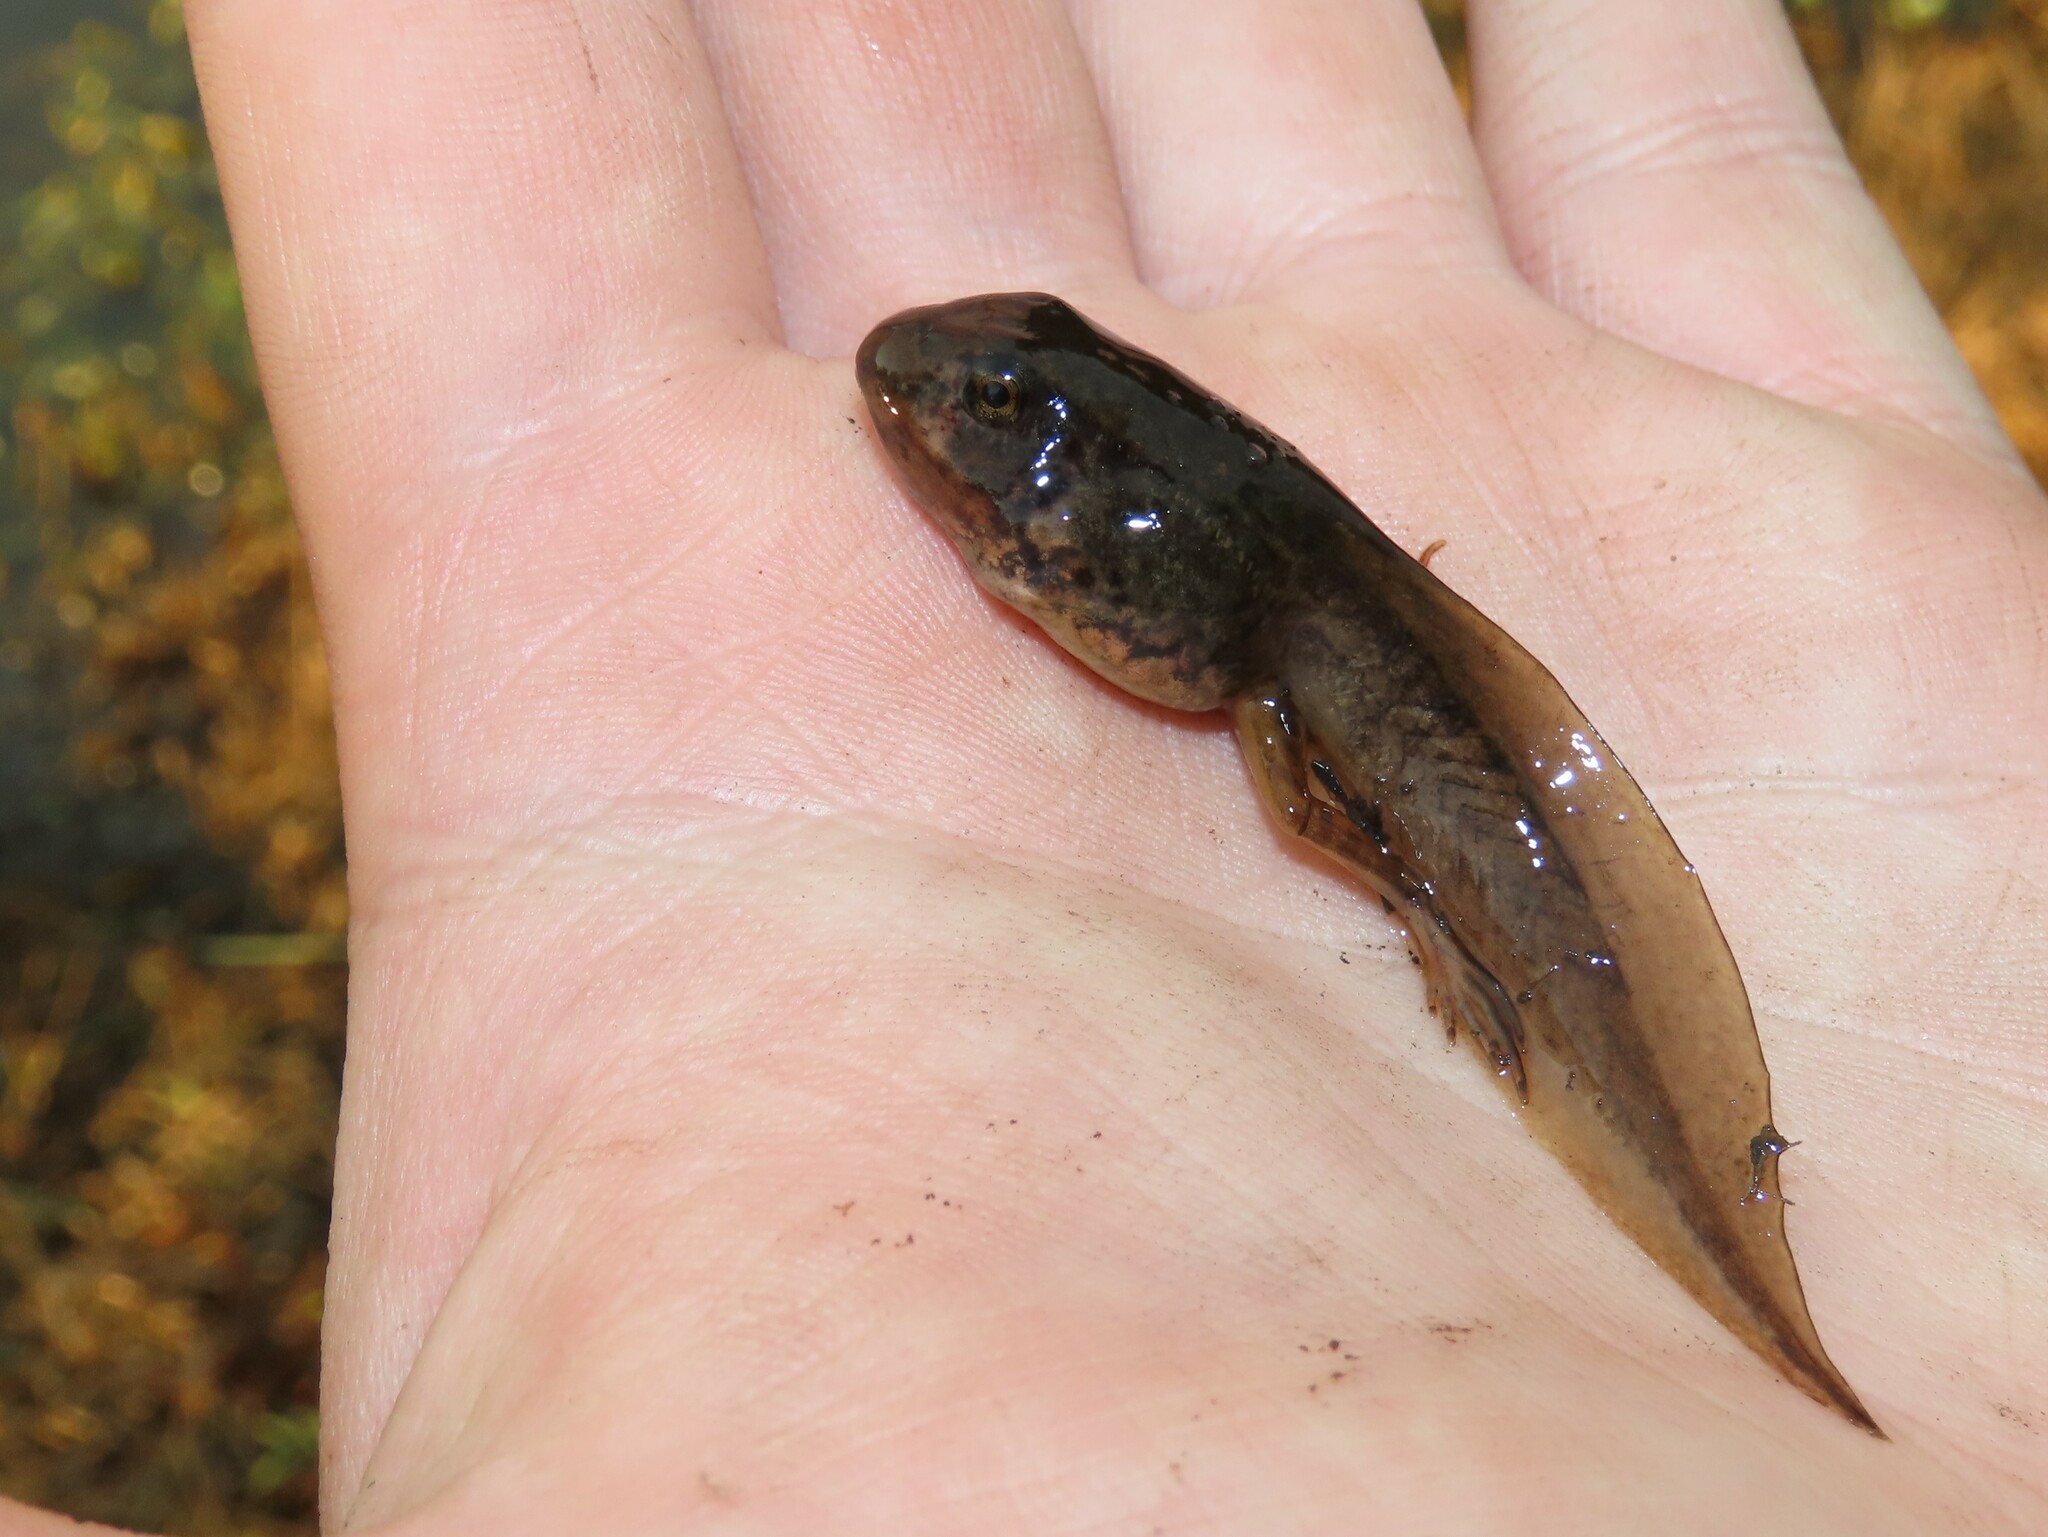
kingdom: Animalia
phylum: Chordata
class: Amphibia
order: Anura
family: Ranidae
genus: Lithobates
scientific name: Lithobates sphenocephalus
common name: Southern leopard frog
